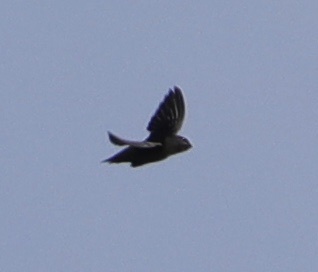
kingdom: Animalia
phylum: Chordata
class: Aves
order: Apodiformes
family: Apodidae
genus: Chaetura
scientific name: Chaetura vauxi
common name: Vaux's swift
